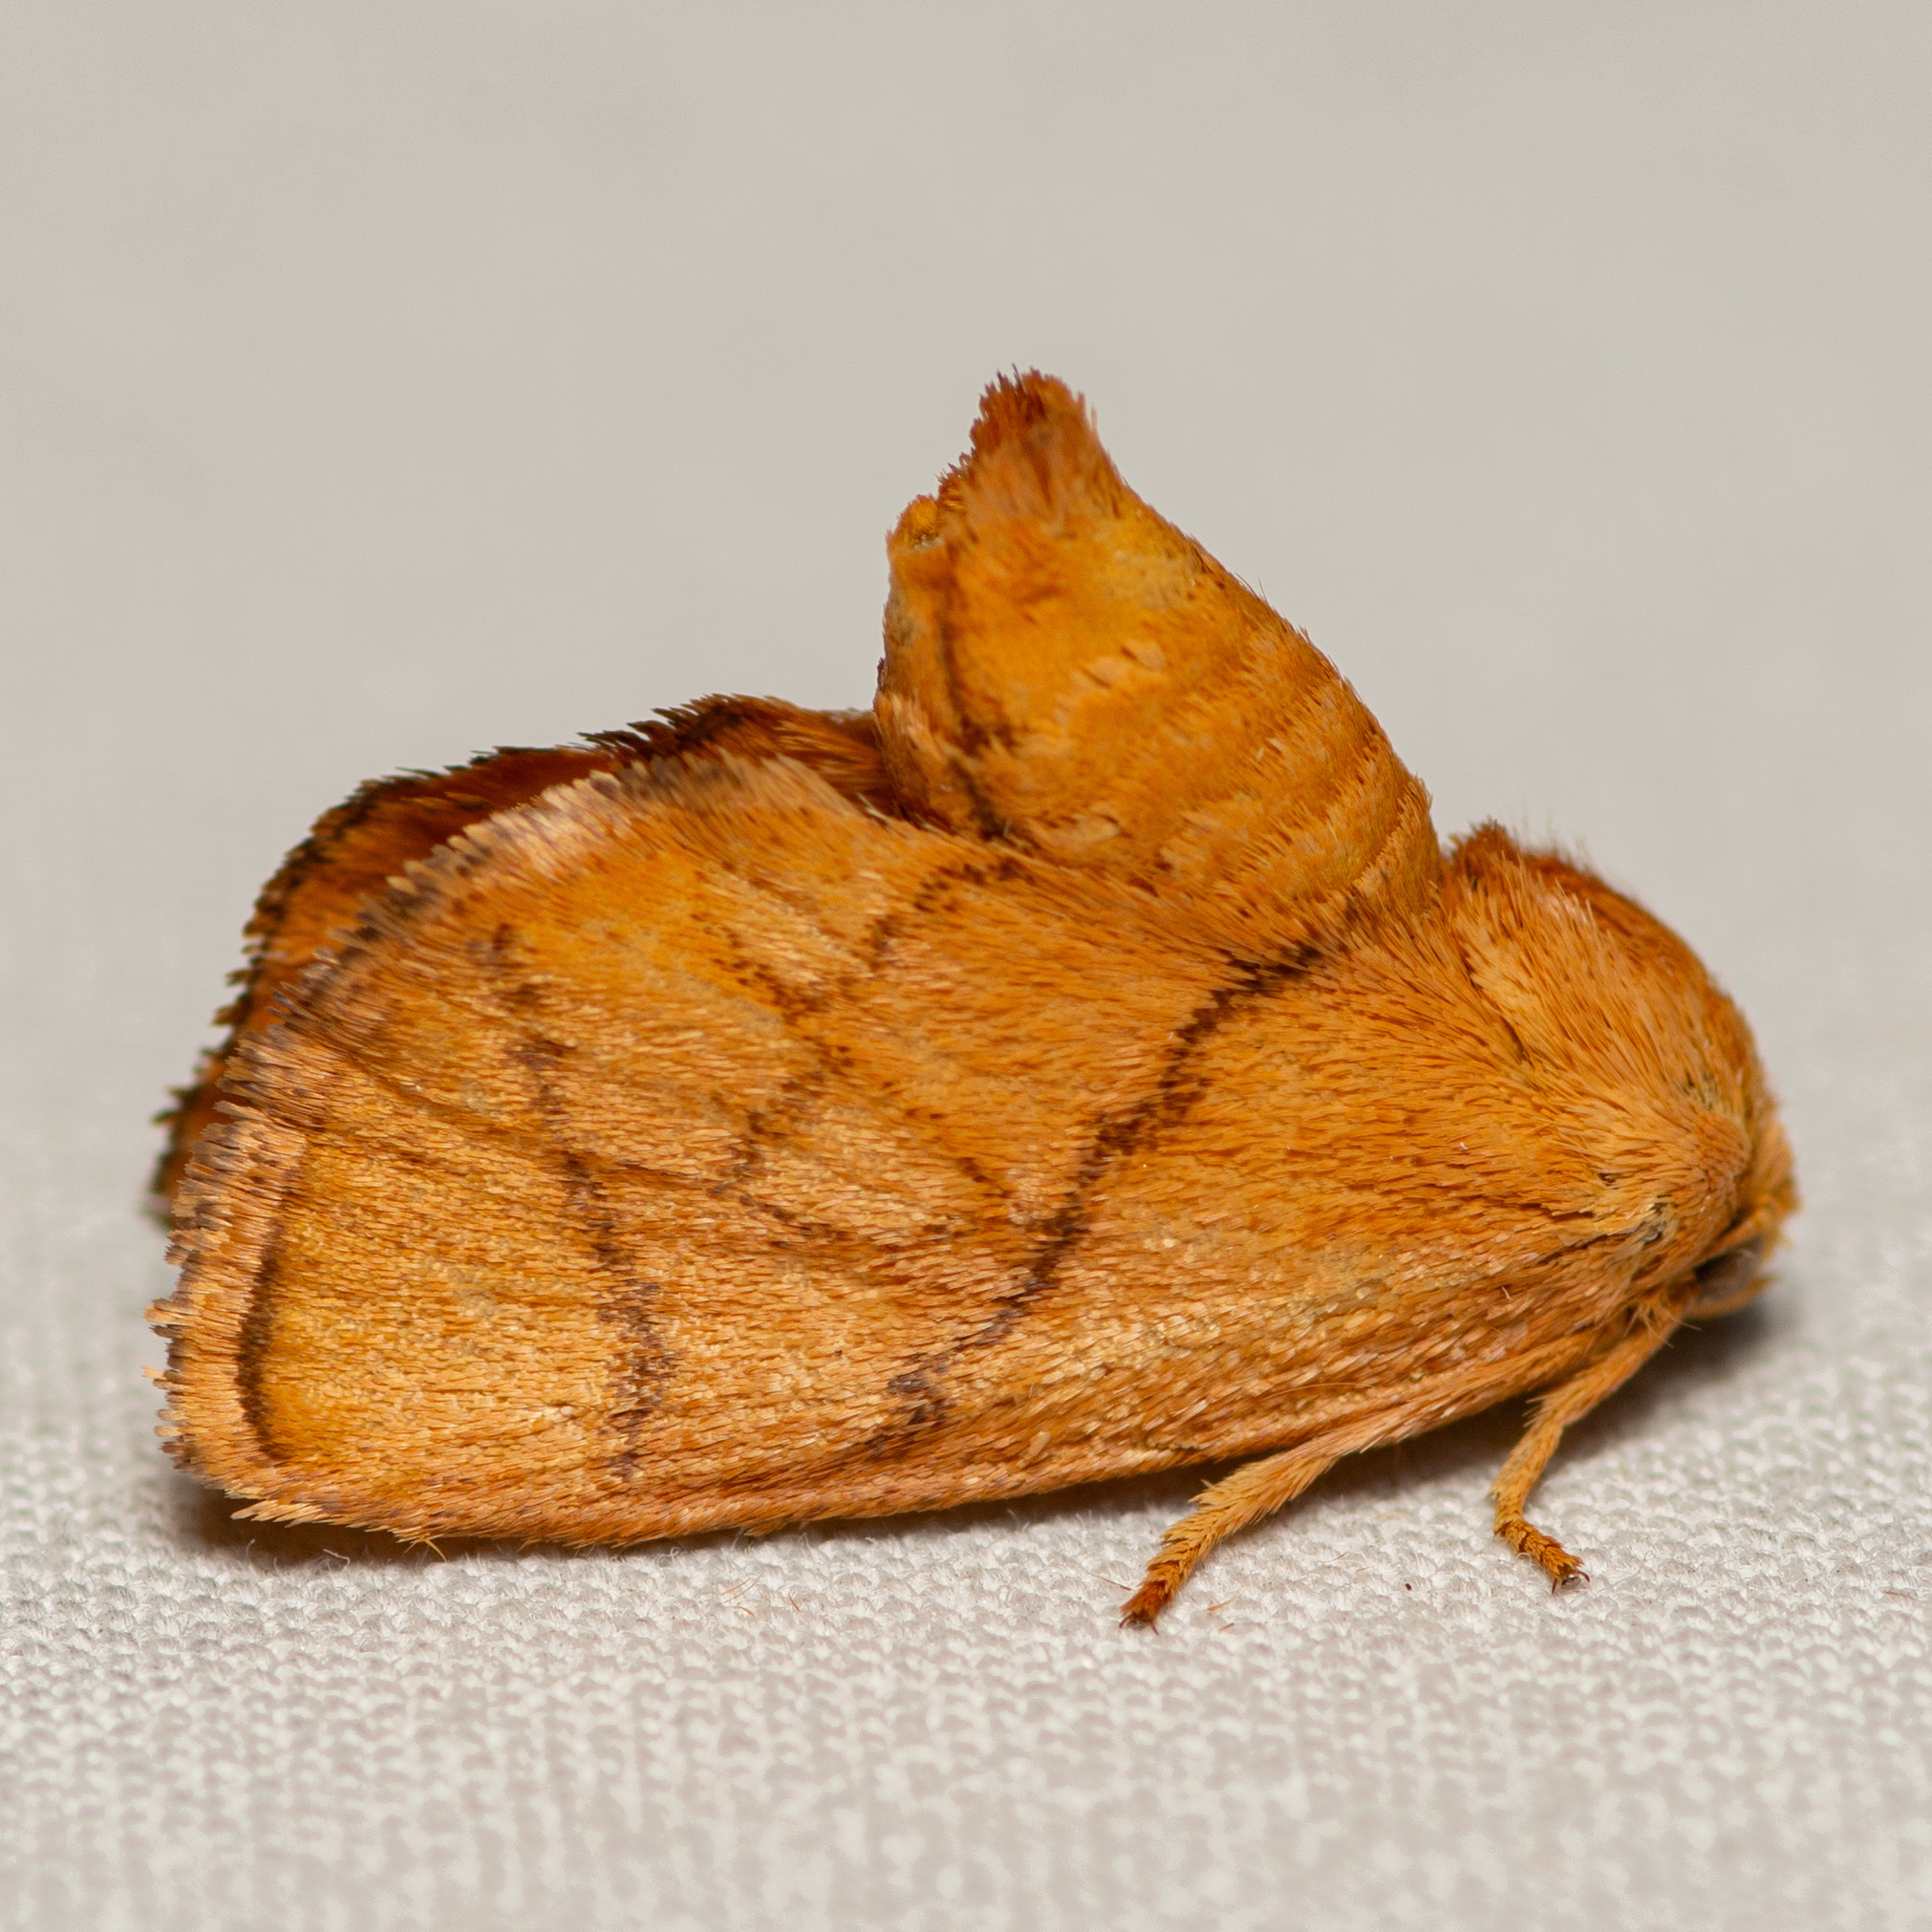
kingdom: Animalia
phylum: Arthropoda
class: Insecta
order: Lepidoptera
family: Limacodidae
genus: Apoda
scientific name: Apoda y-inversa
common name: Yellow-collared slug moth
